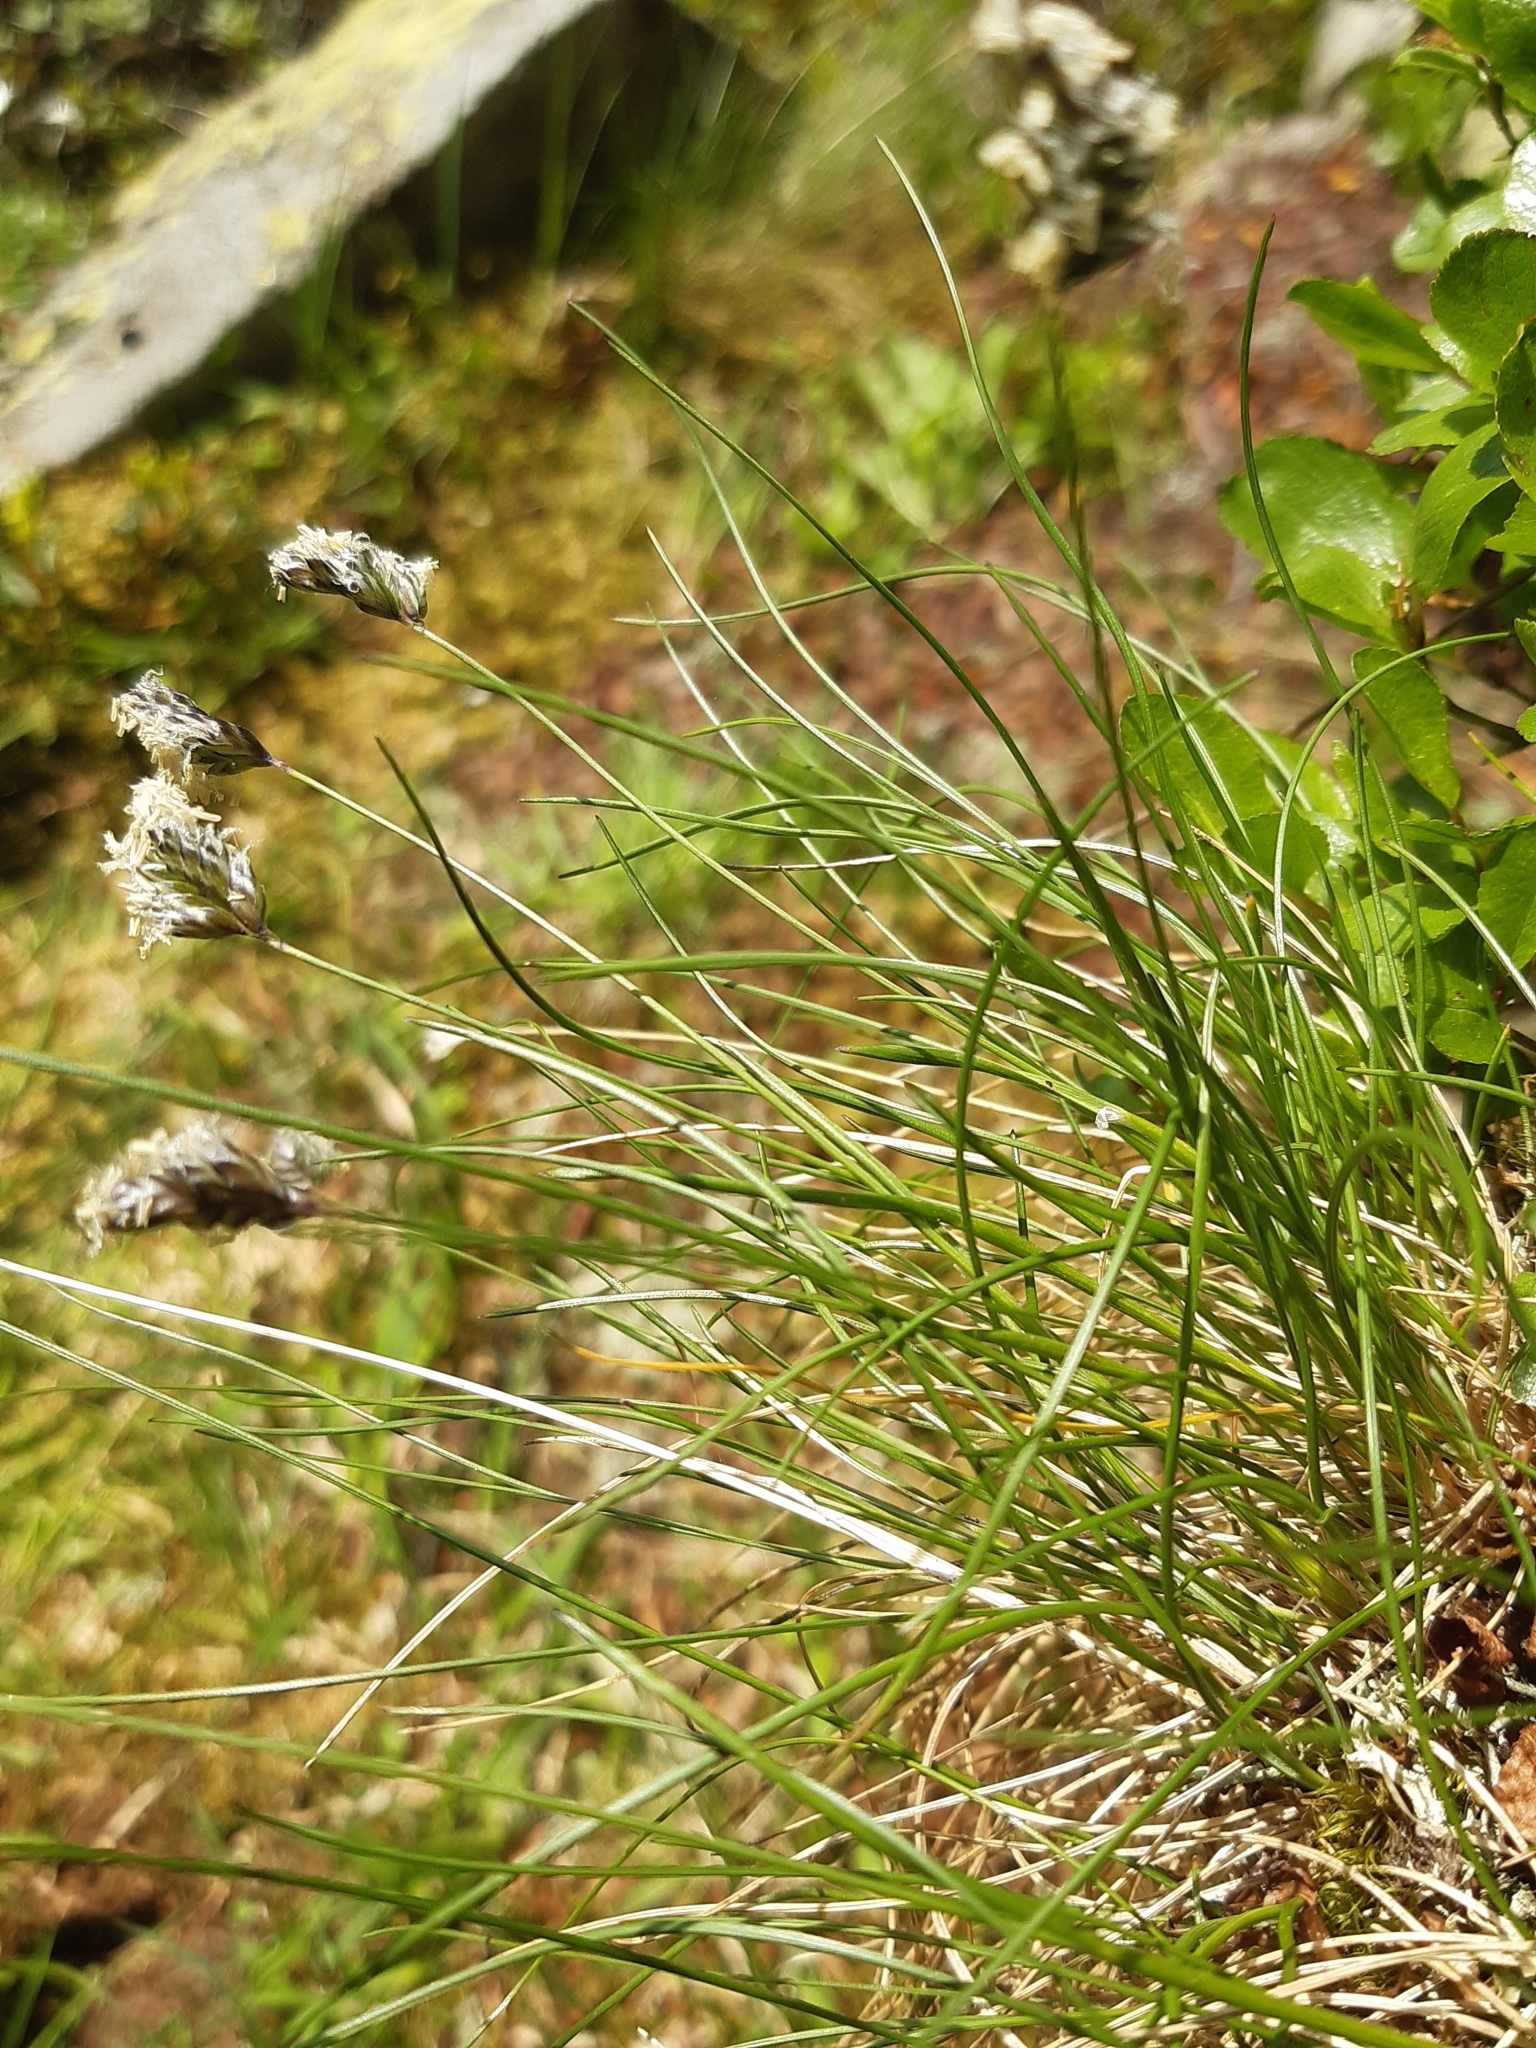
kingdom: Plantae
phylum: Tracheophyta
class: Liliopsida
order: Poales
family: Poaceae
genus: Oreochloa
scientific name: Oreochloa disticha
